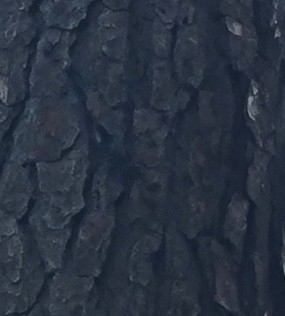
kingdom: Animalia
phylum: Chordata
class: Aves
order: Passeriformes
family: Sittidae
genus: Sitta
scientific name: Sitta carolinensis
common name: White-breasted nuthatch
